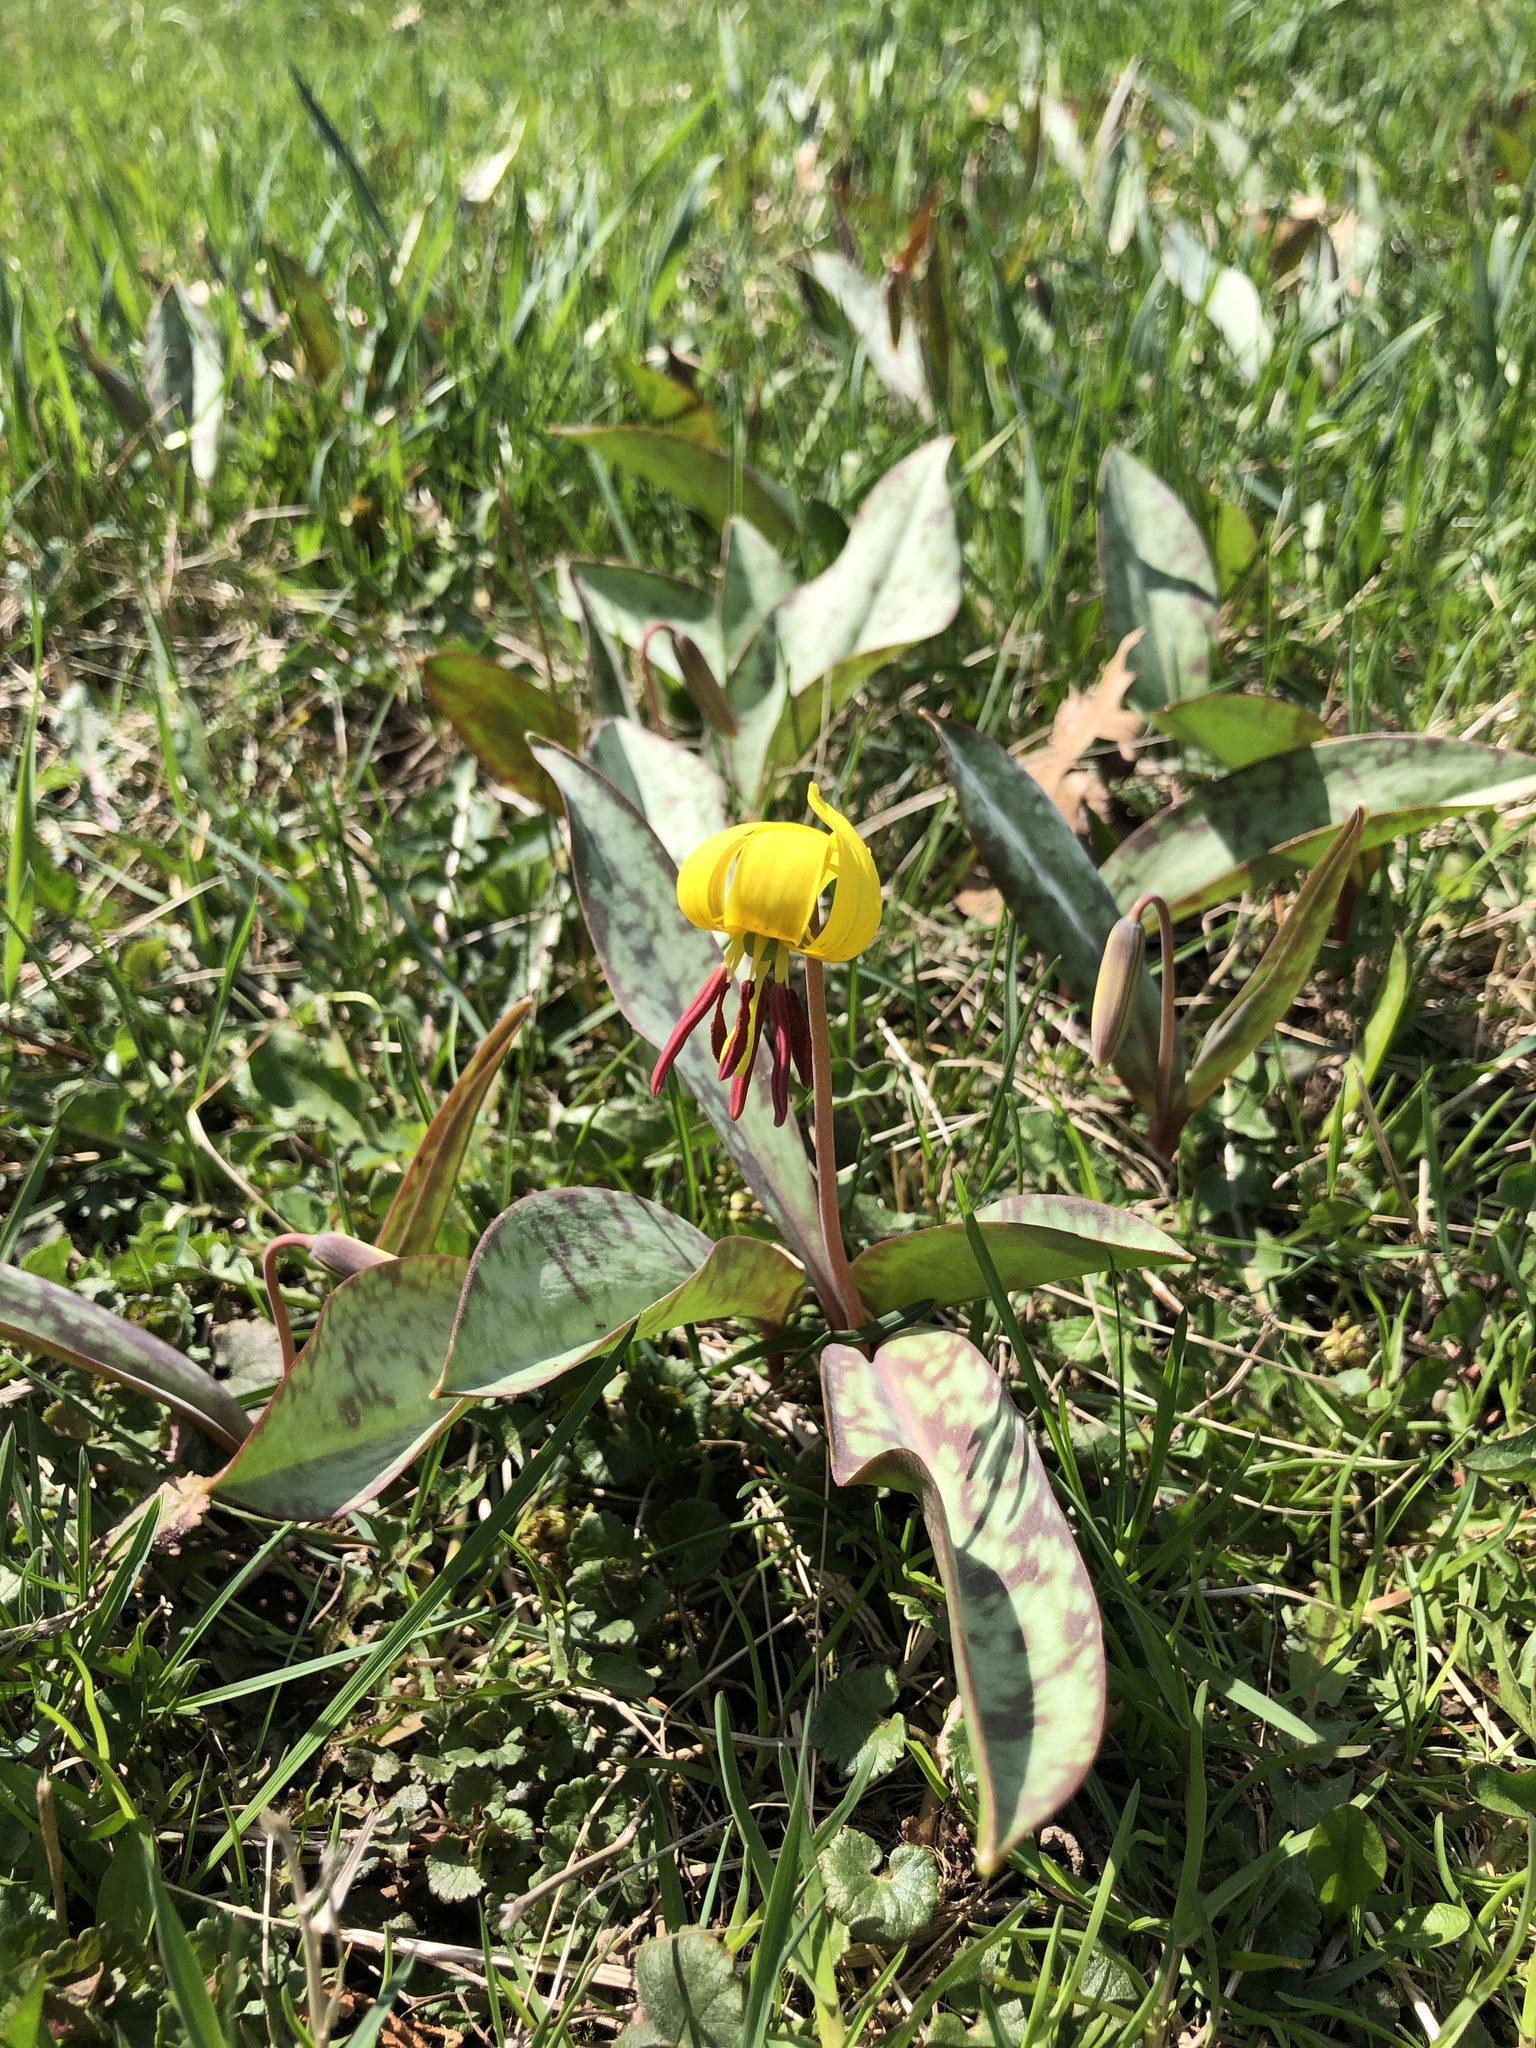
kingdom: Plantae
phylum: Tracheophyta
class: Liliopsida
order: Liliales
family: Liliaceae
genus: Erythronium
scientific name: Erythronium americanum
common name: Yellow adder's-tongue
